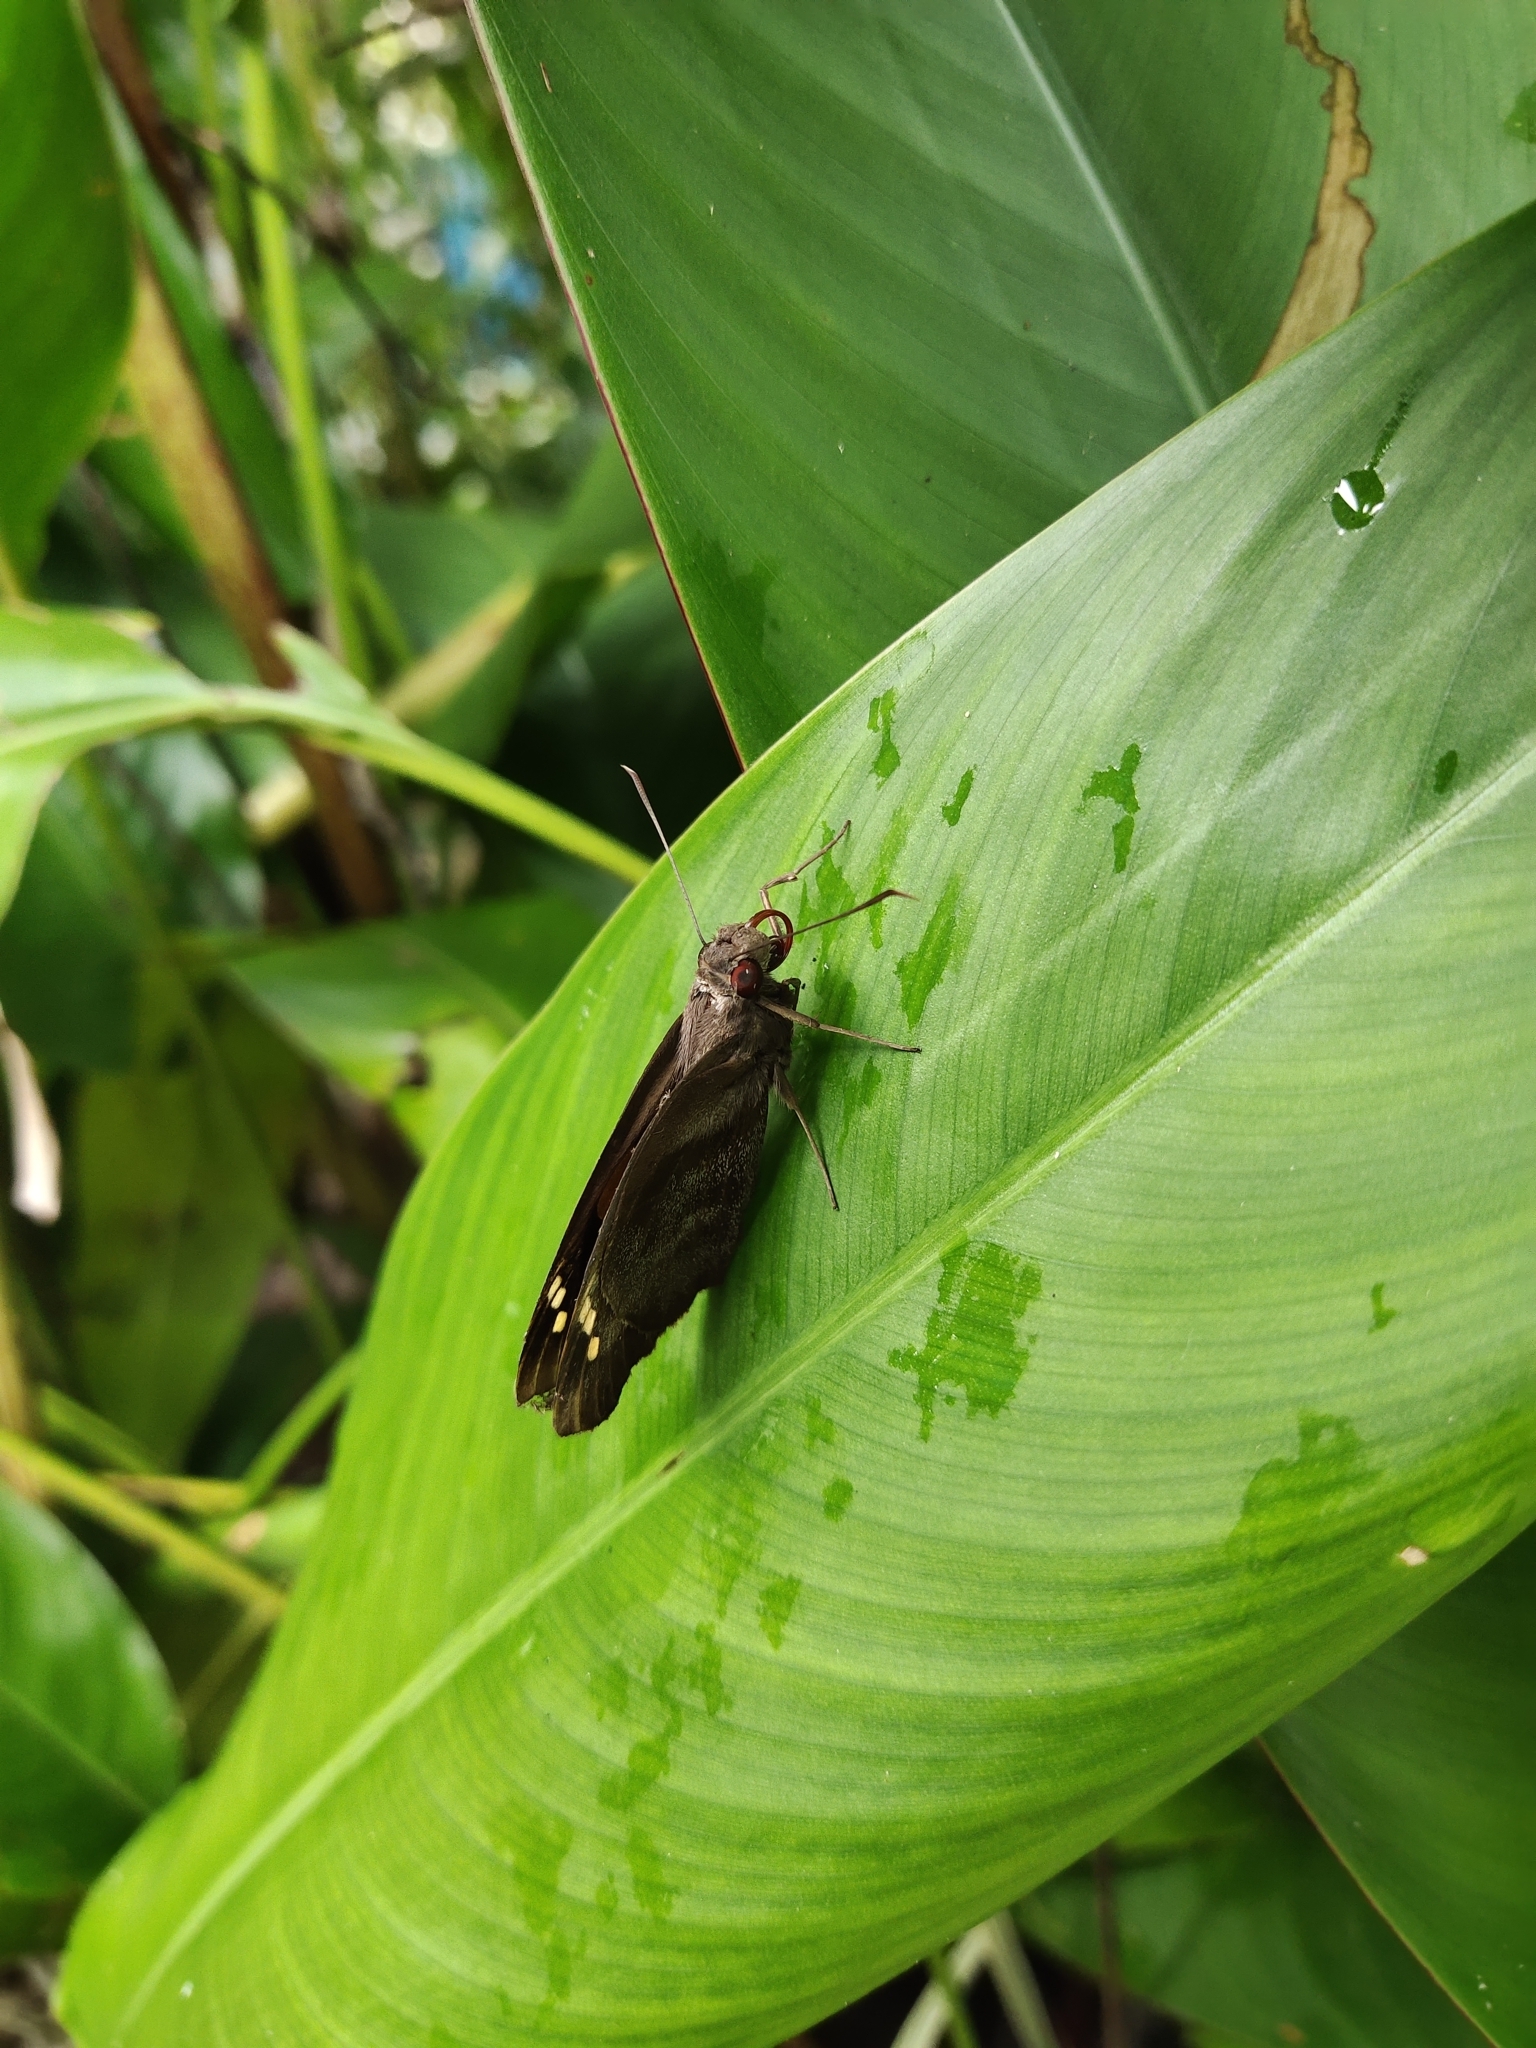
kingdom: Animalia
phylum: Arthropoda
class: Insecta
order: Lepidoptera
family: Hesperiidae
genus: Gangara
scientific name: Gangara thyrsis
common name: Giant redeye
